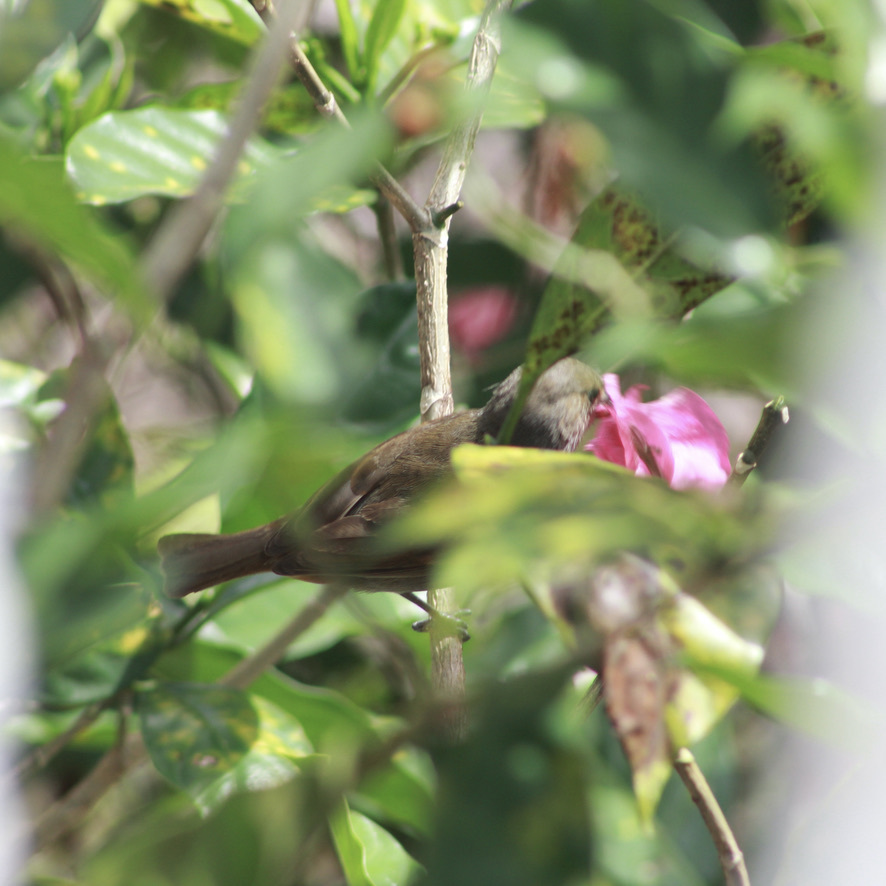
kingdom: Animalia
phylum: Chordata
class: Aves
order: Passeriformes
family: Thraupidae
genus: Loxigilla
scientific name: Loxigilla noctis
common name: Lesser antillean bullfinch
